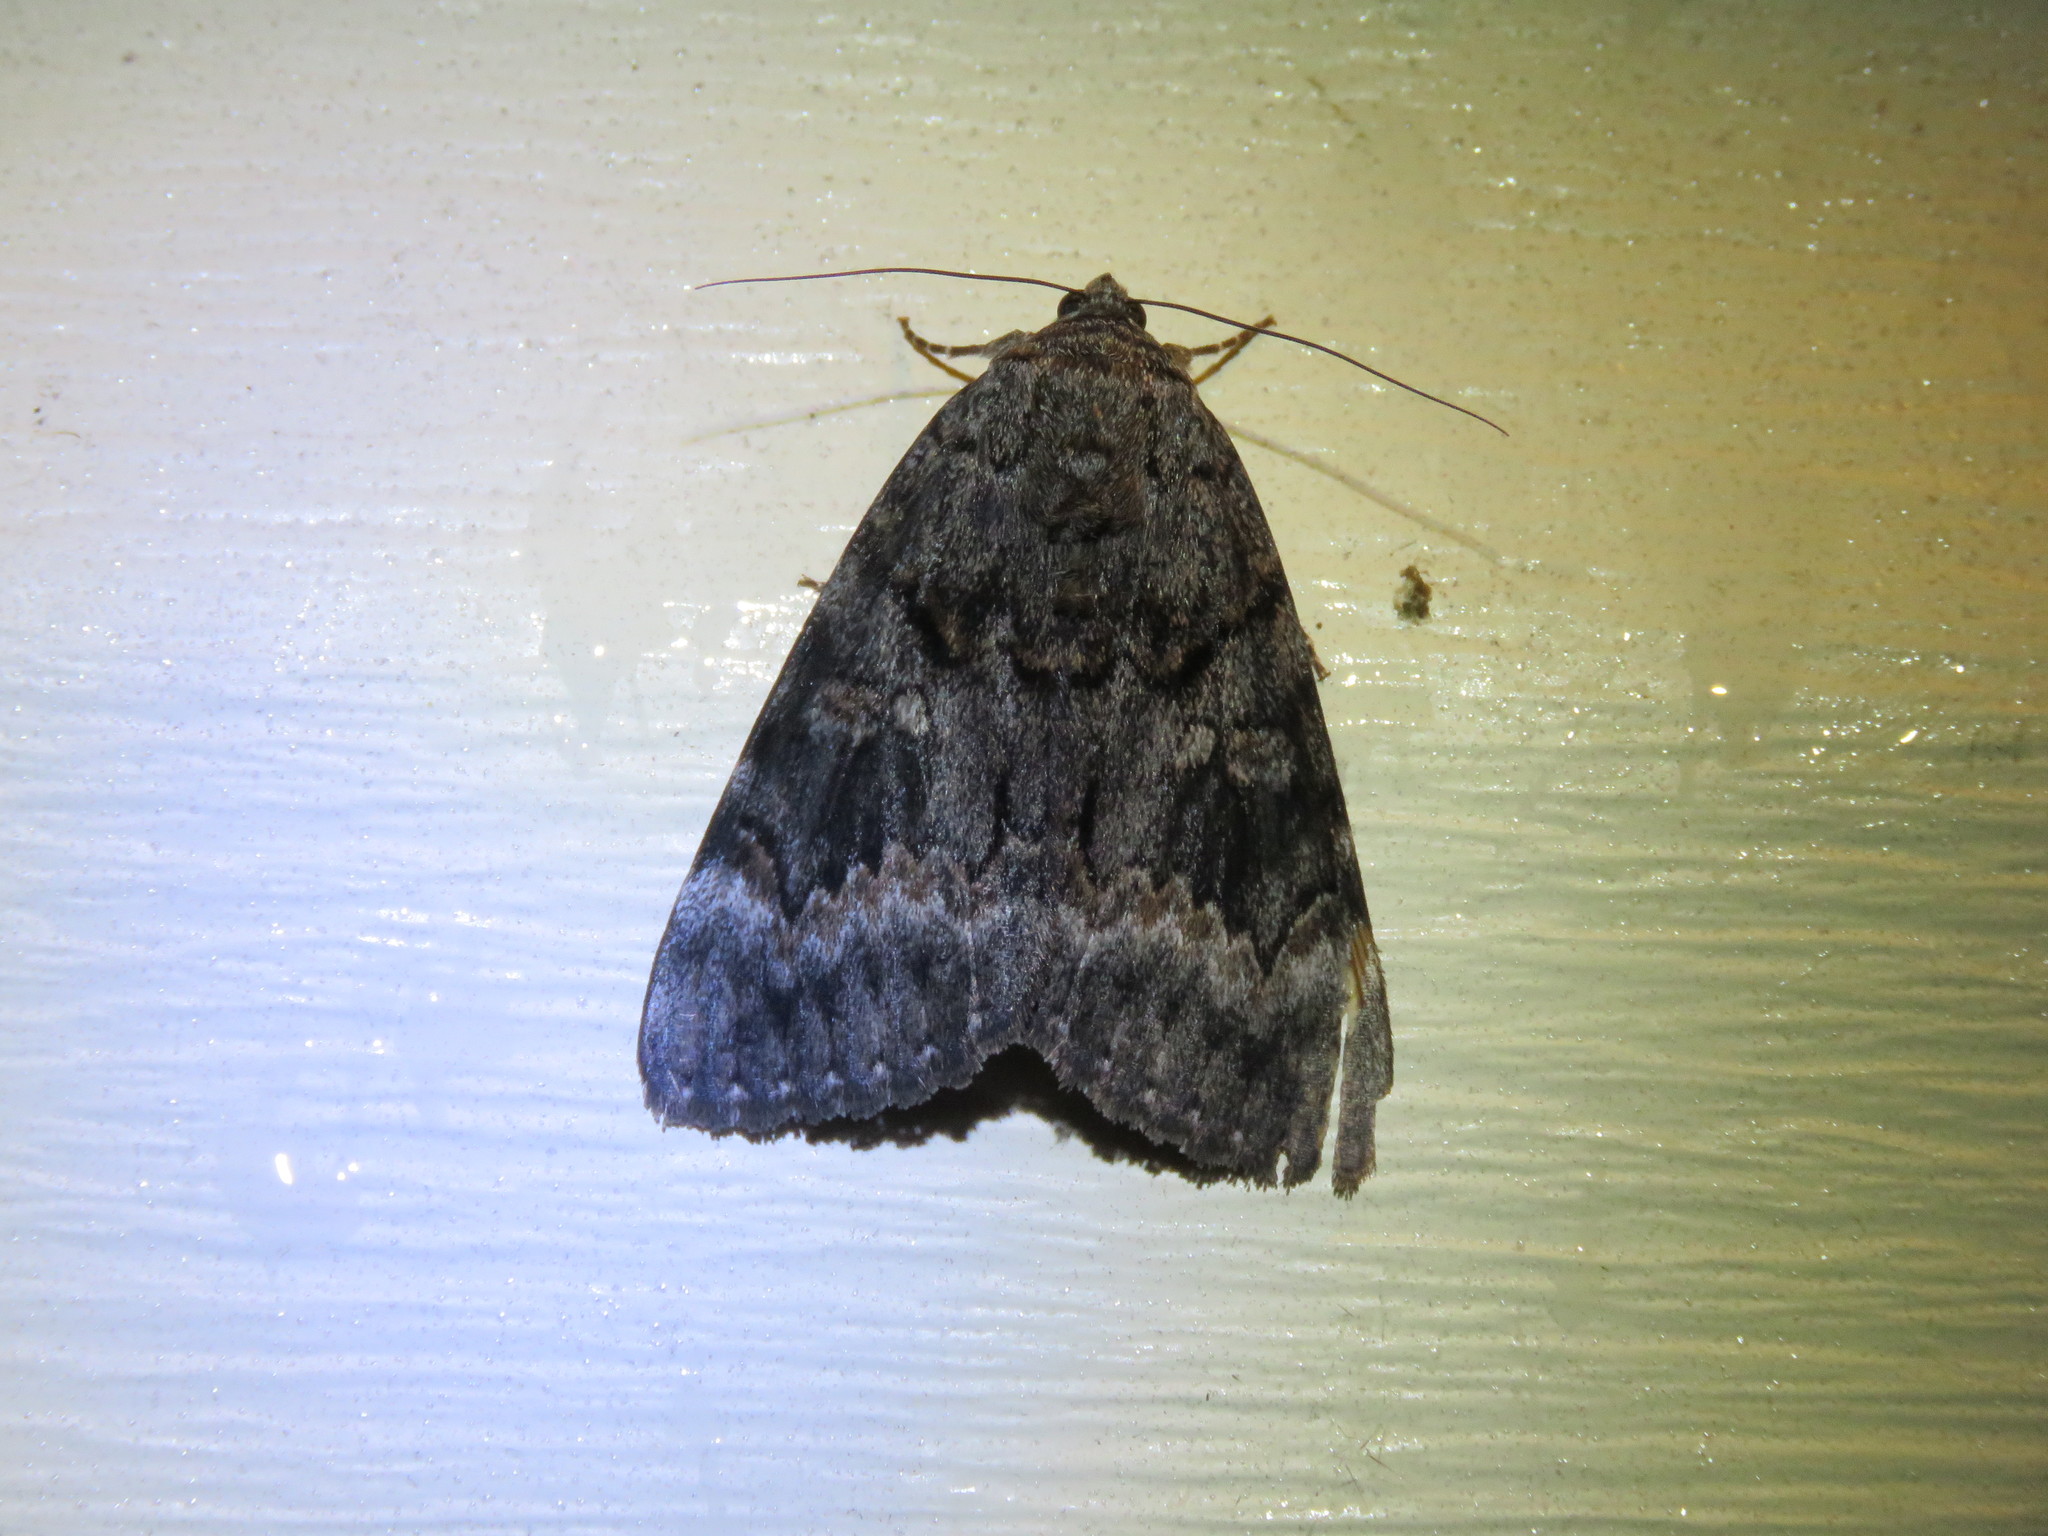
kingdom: Animalia
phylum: Arthropoda
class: Insecta
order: Lepidoptera
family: Erebidae
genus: Catocala
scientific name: Catocala epione
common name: Epione underwing
